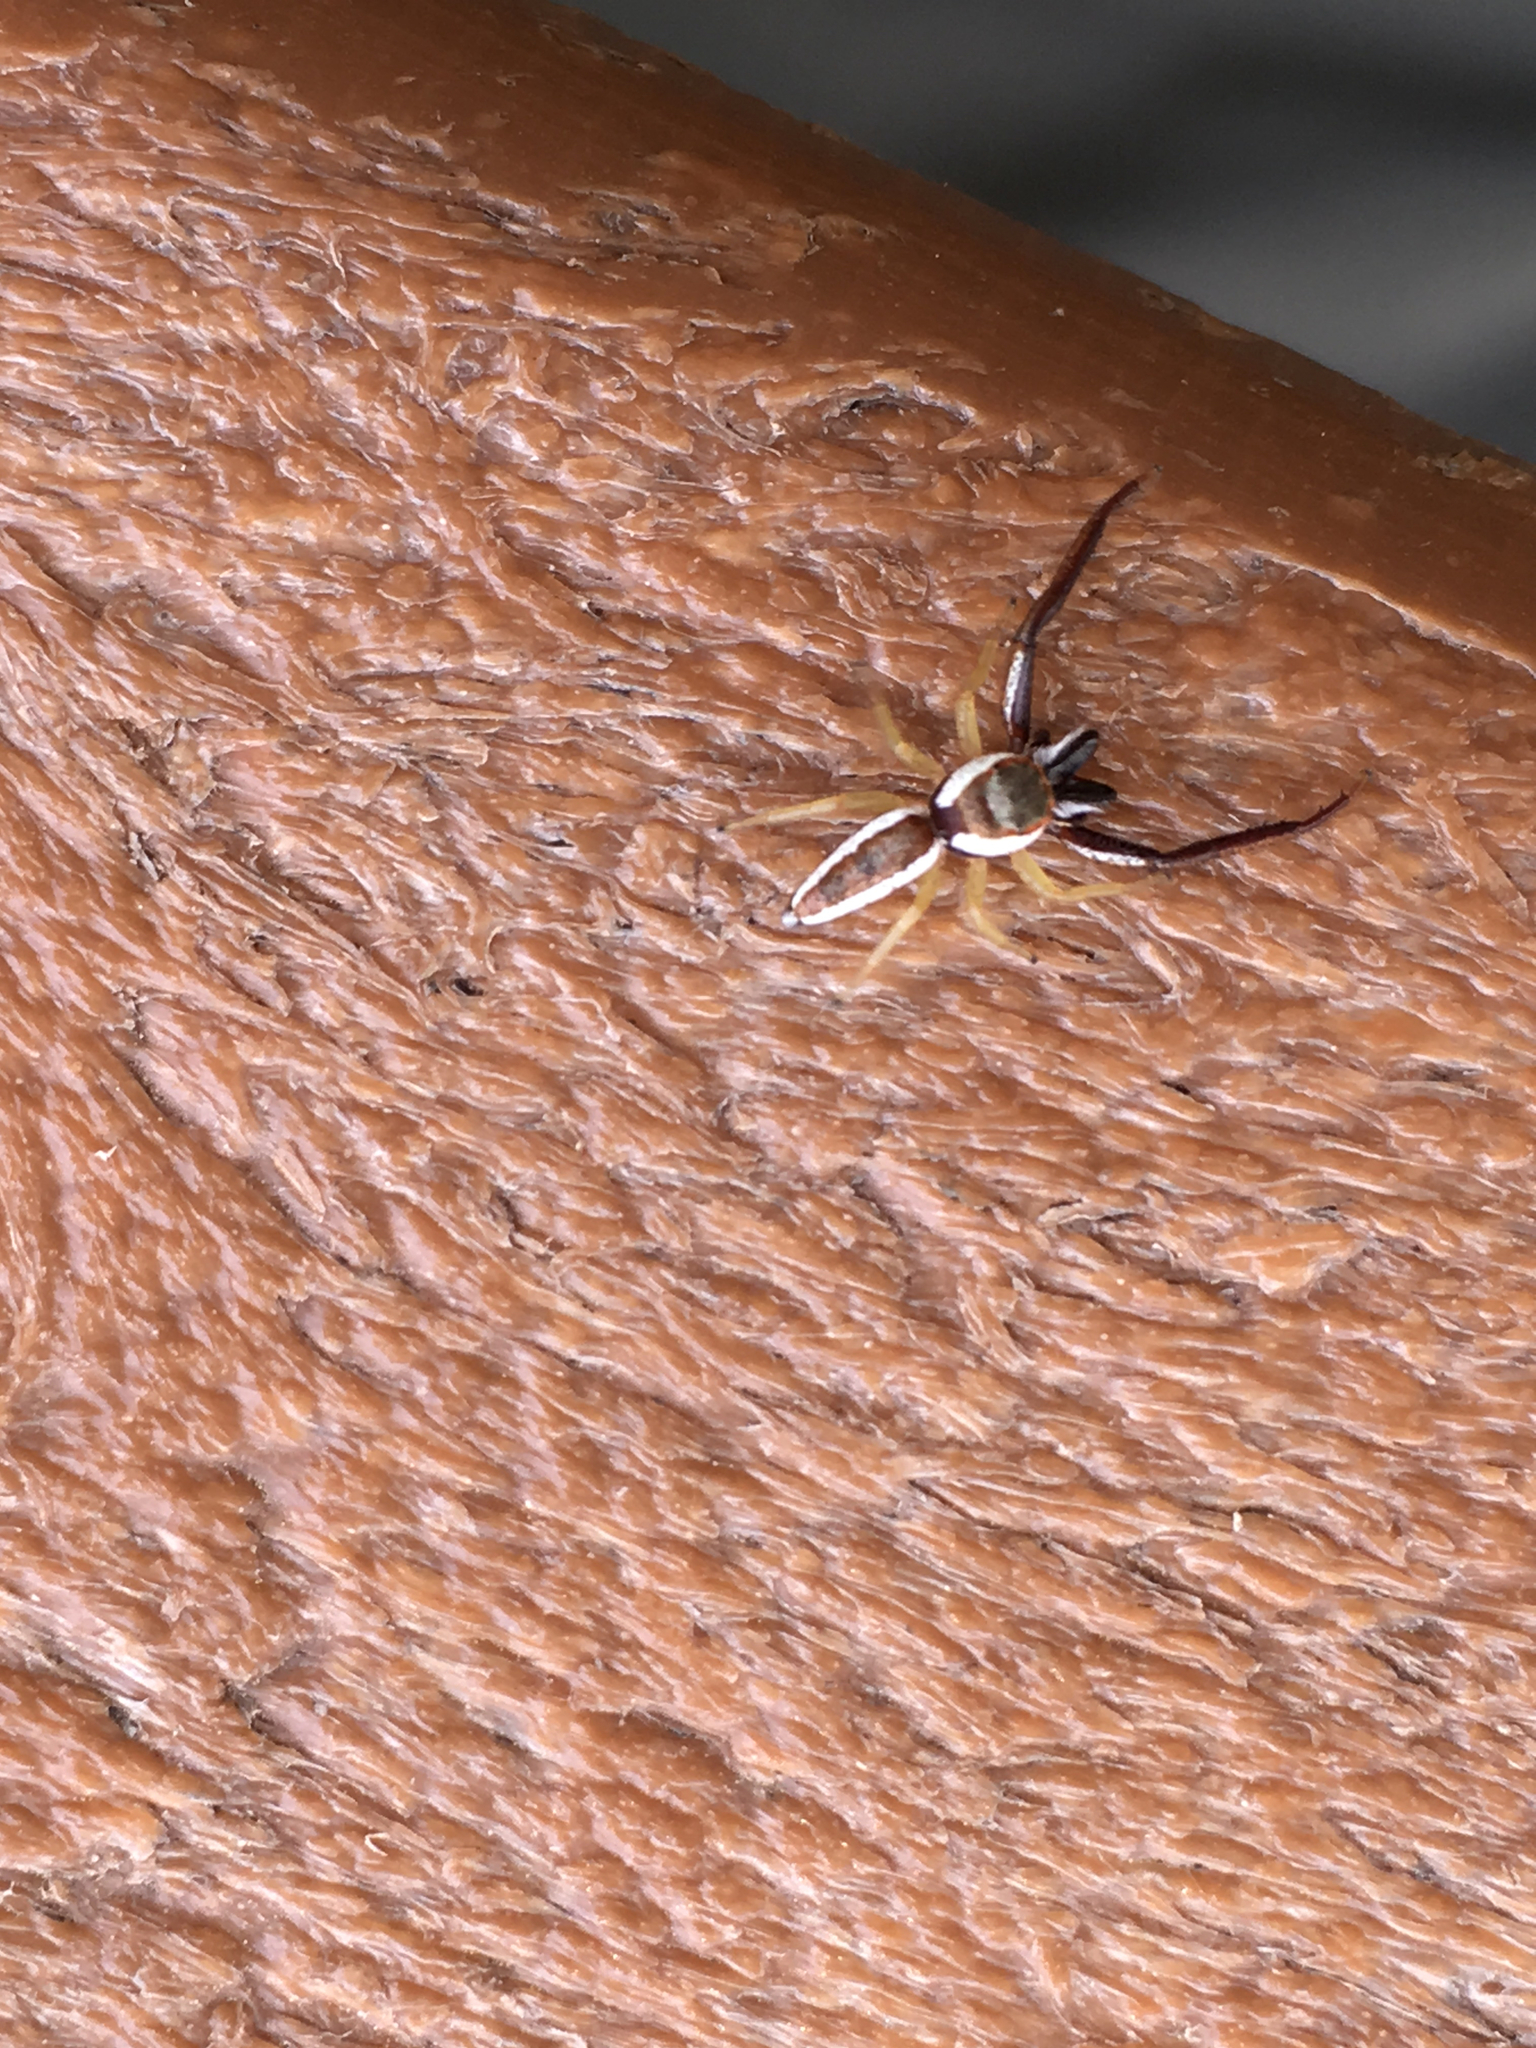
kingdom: Animalia
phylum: Arthropoda
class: Arachnida
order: Araneae
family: Salticidae
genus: Hentzia
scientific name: Hentzia palmarum
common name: Common hentz jumping spider
